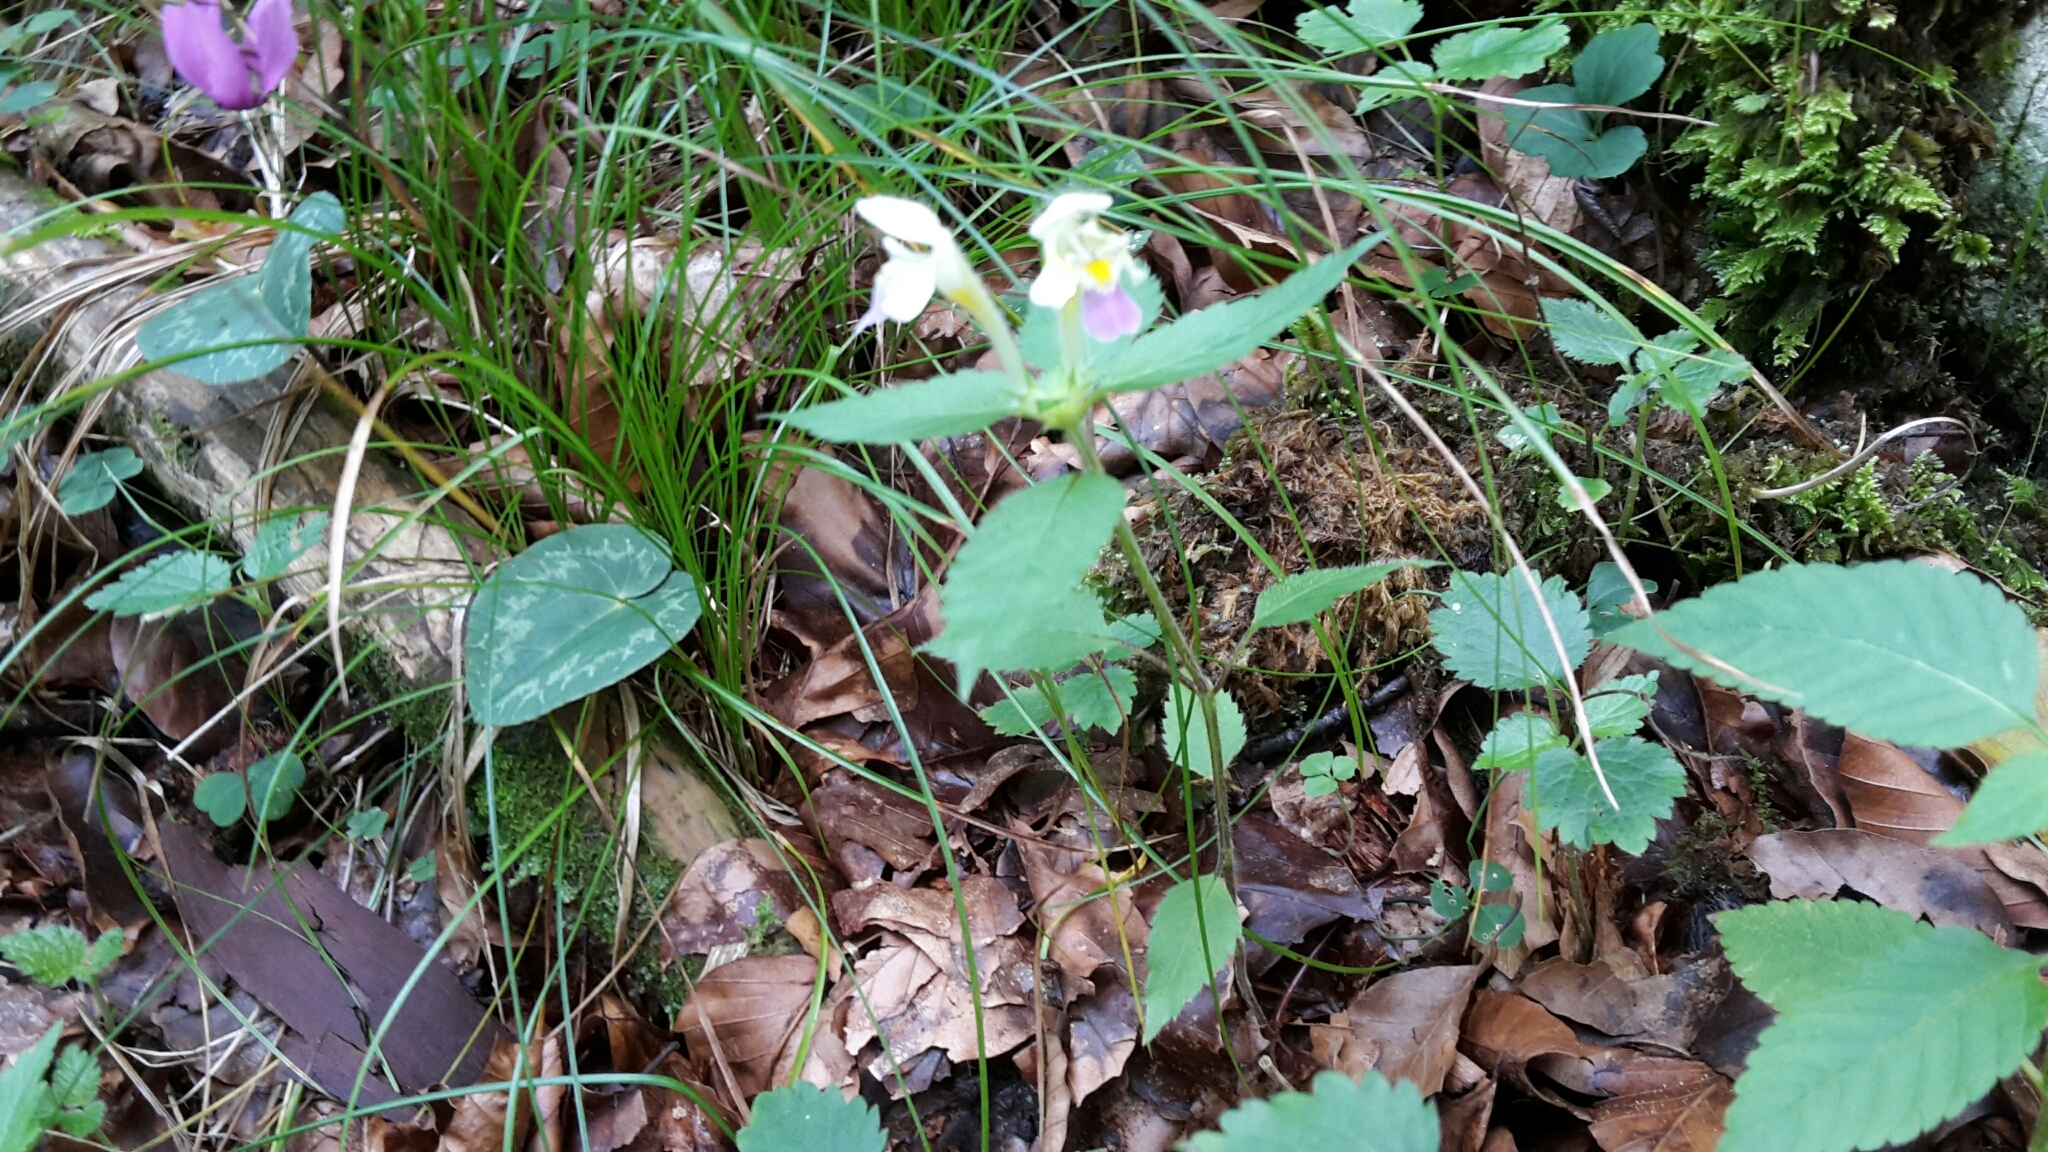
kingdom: Plantae
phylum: Tracheophyta
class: Magnoliopsida
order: Lamiales
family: Lamiaceae
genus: Galeopsis
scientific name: Galeopsis speciosa
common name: Large-flowered hemp-nettle
